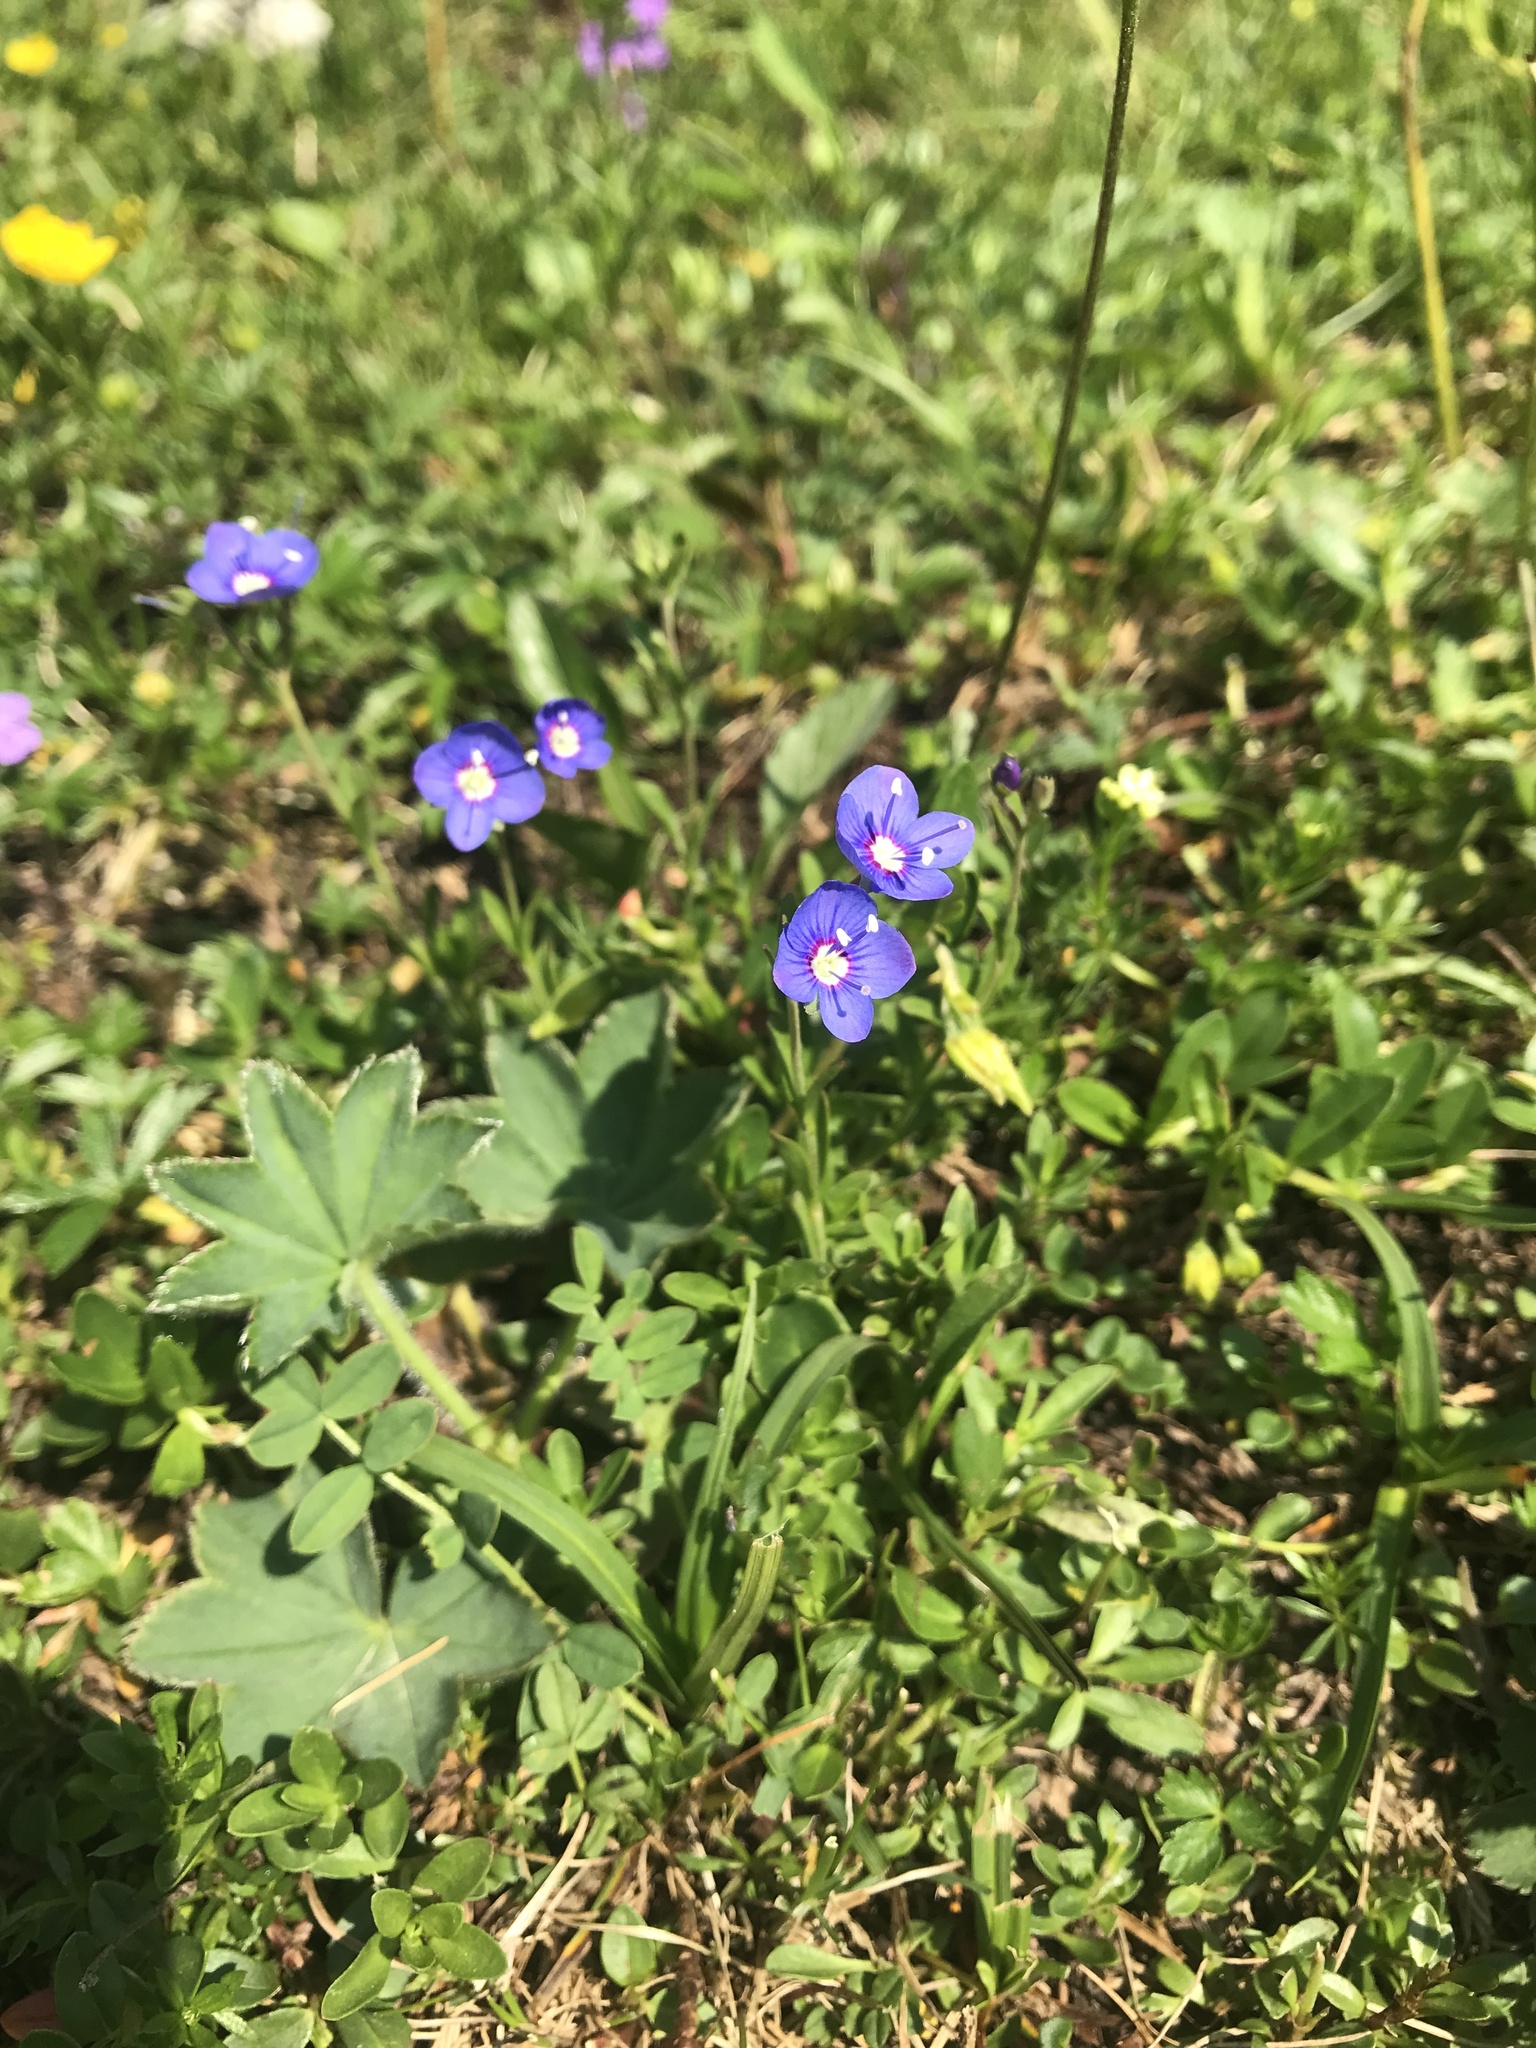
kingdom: Plantae
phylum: Tracheophyta
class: Magnoliopsida
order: Lamiales
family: Plantaginaceae
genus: Veronica
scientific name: Veronica fruticans
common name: Rock speedwell
